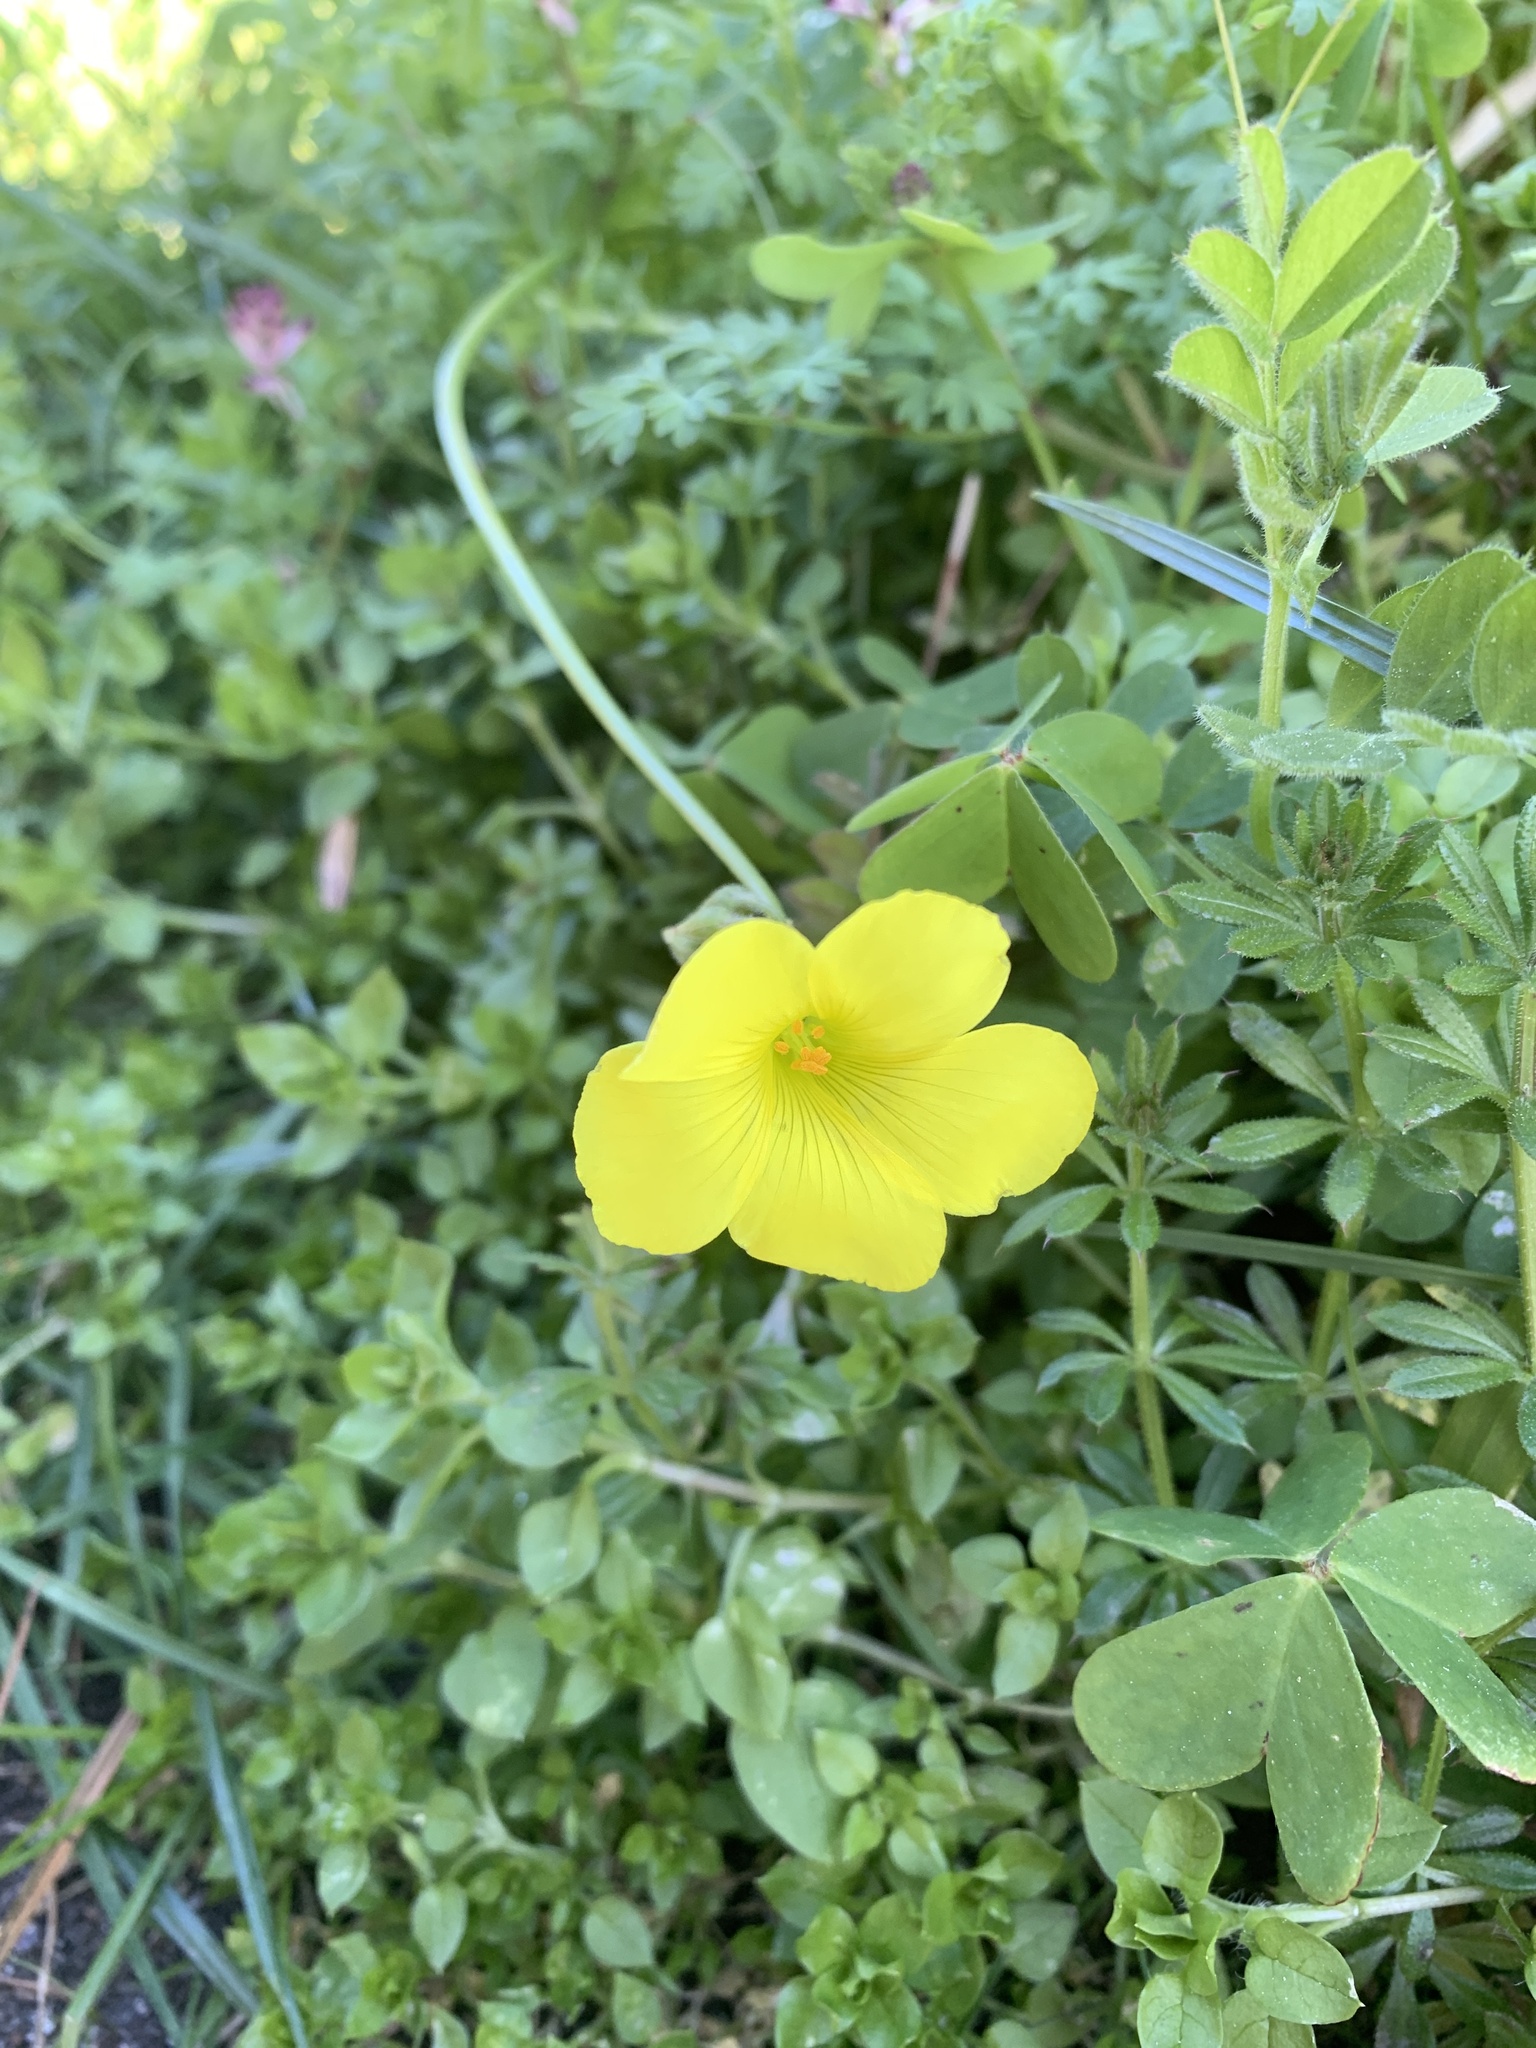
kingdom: Plantae
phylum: Tracheophyta
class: Magnoliopsida
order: Oxalidales
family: Oxalidaceae
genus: Oxalis
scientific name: Oxalis pes-caprae
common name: Bermuda-buttercup
